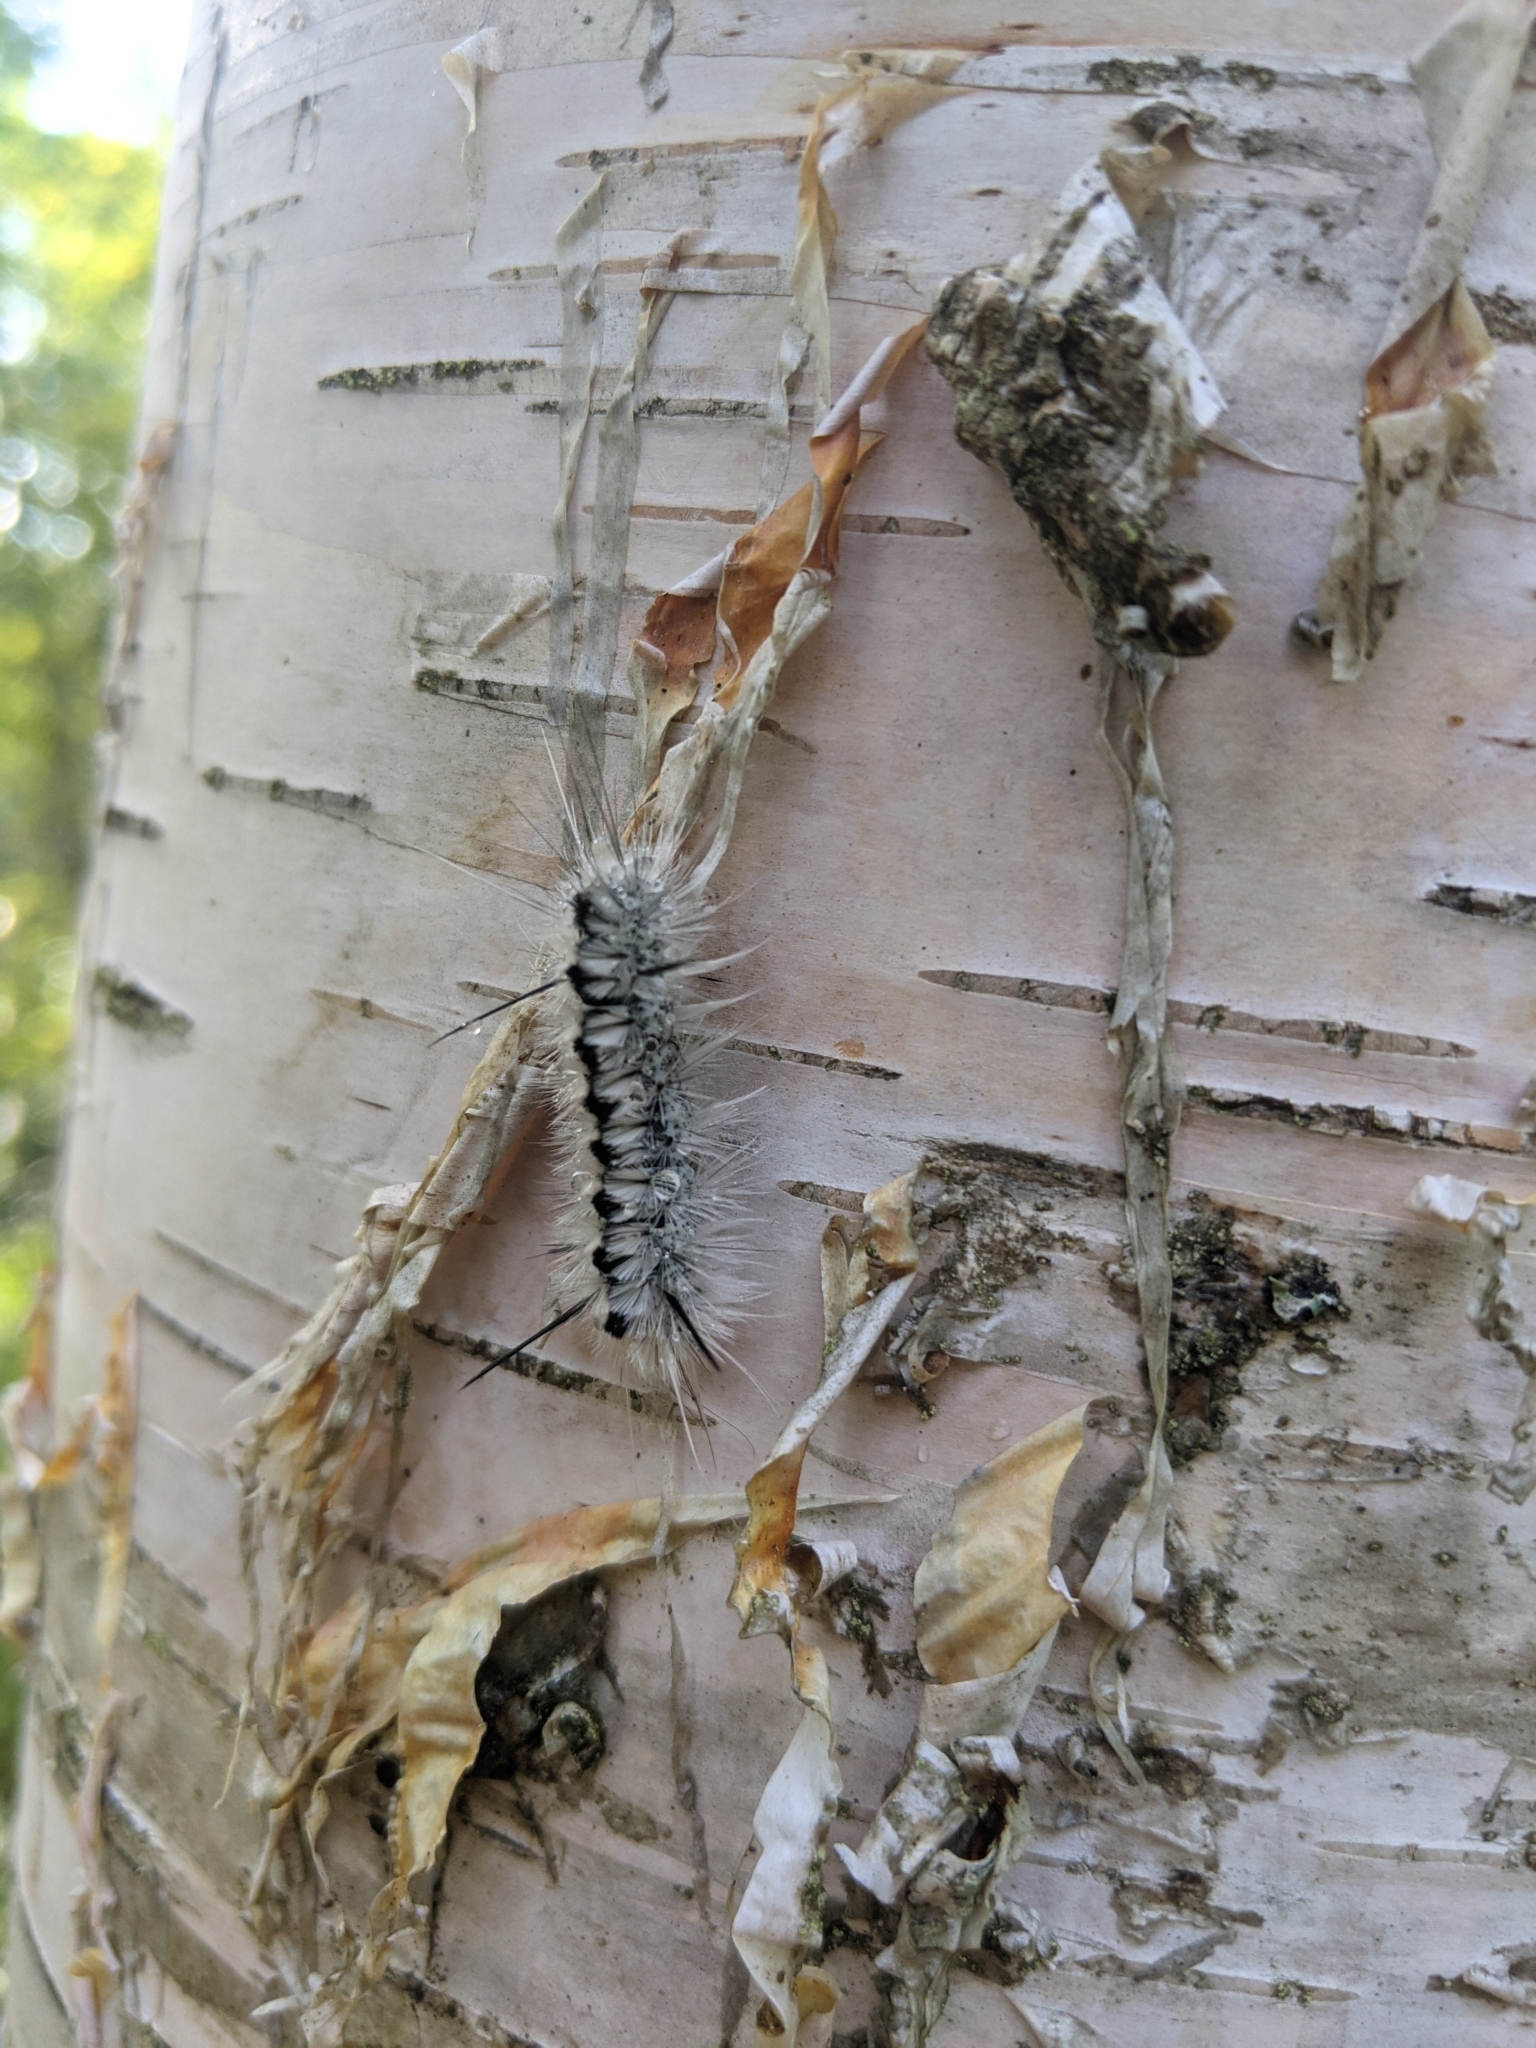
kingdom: Animalia
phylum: Arthropoda
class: Insecta
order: Lepidoptera
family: Erebidae
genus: Lophocampa
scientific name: Lophocampa caryae
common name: Hickory tussock moth
